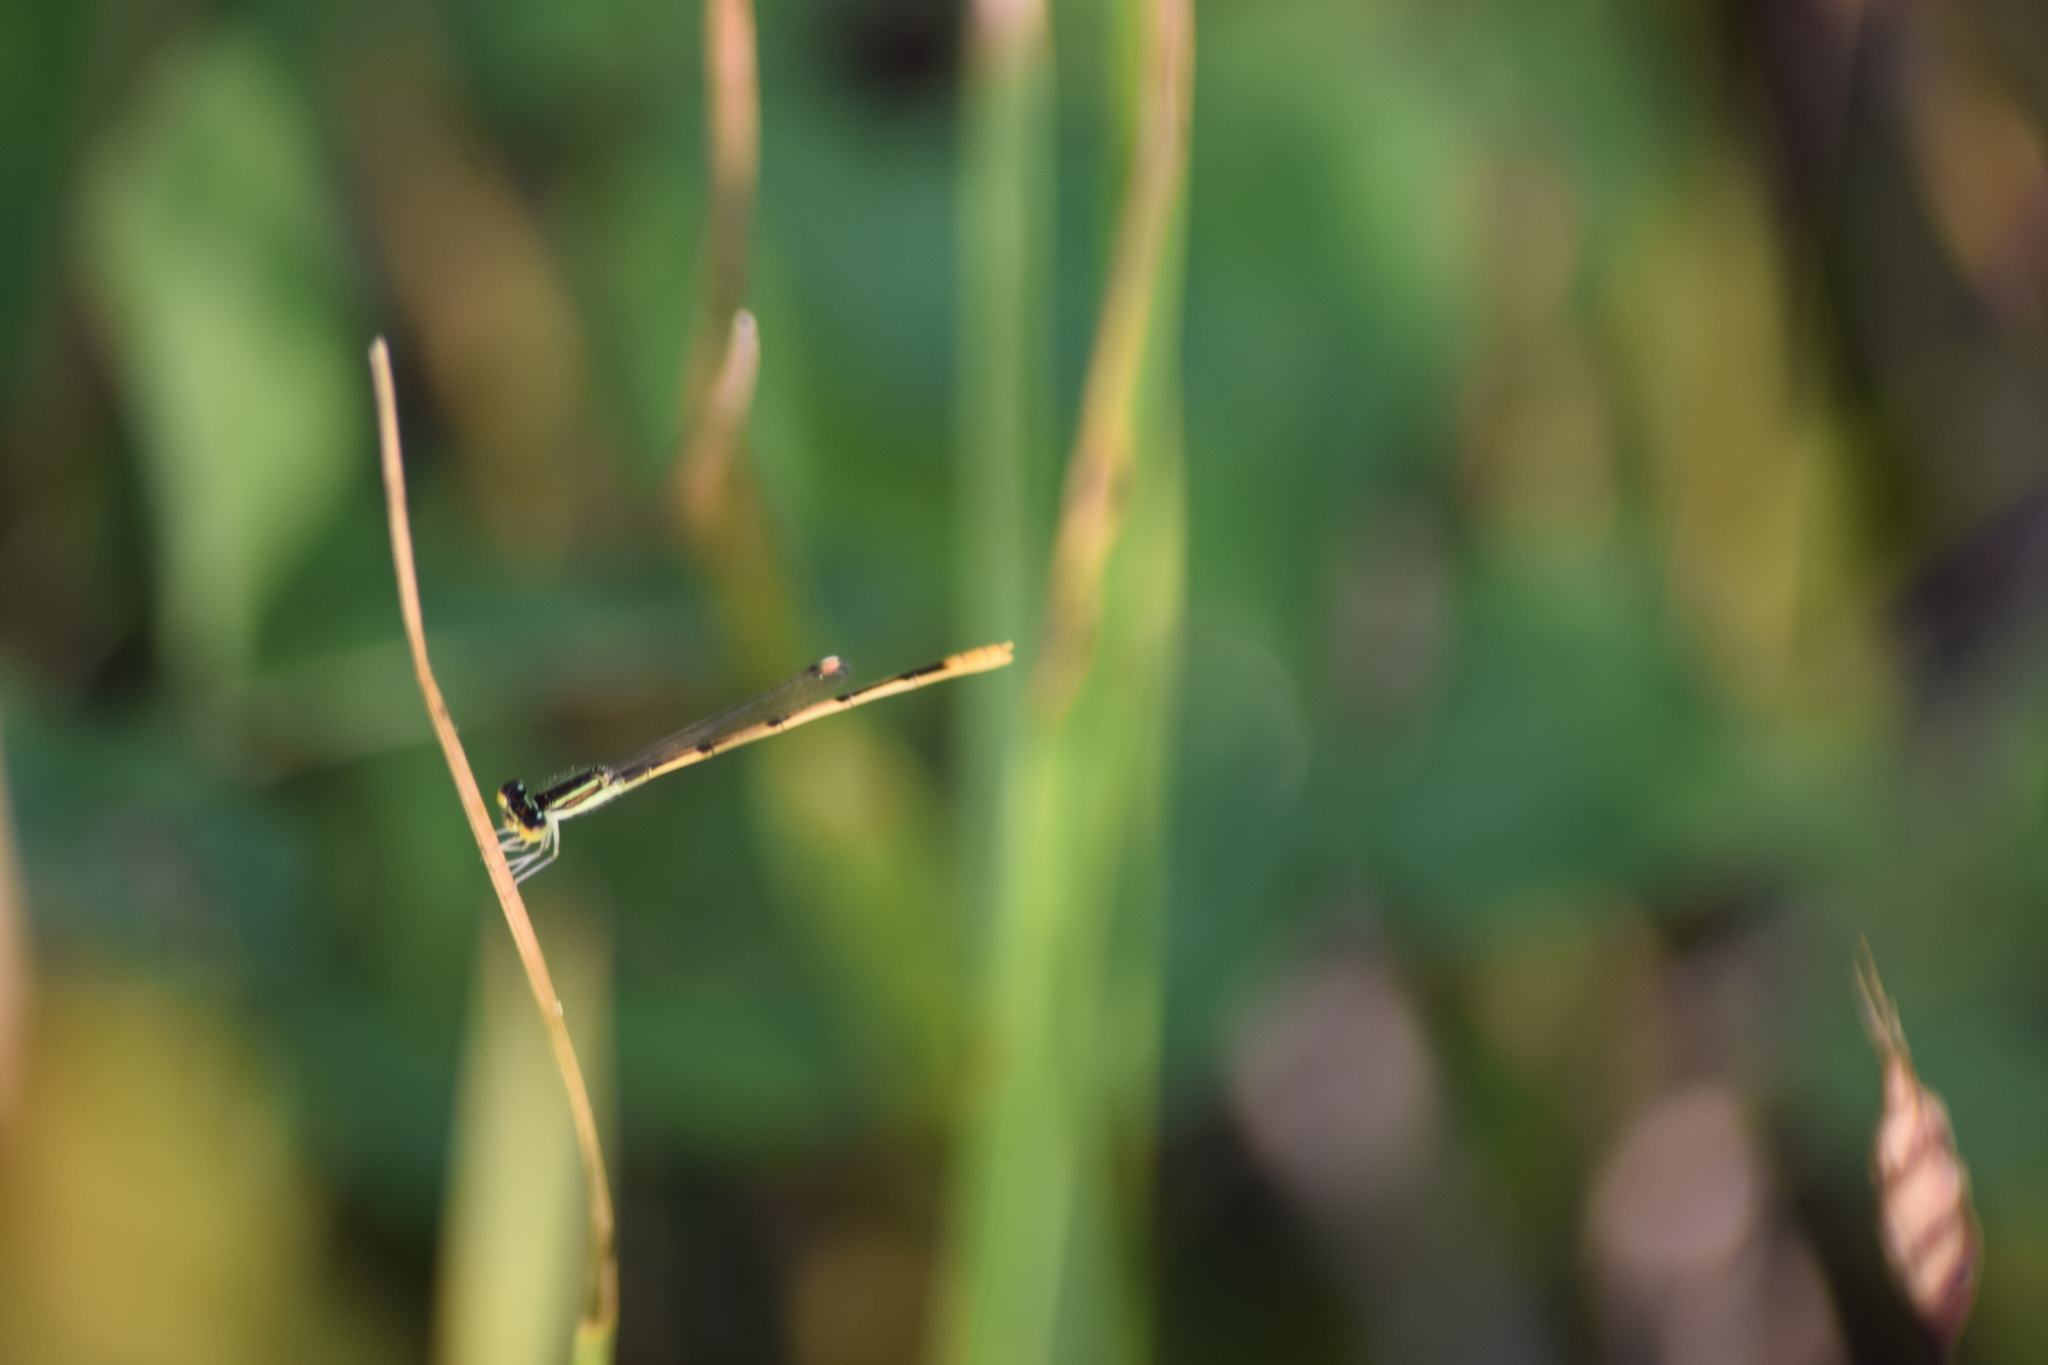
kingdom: Animalia
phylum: Arthropoda
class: Insecta
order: Odonata
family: Coenagrionidae
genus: Ischnura
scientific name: Ischnura hastata
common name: Citrine forktail
